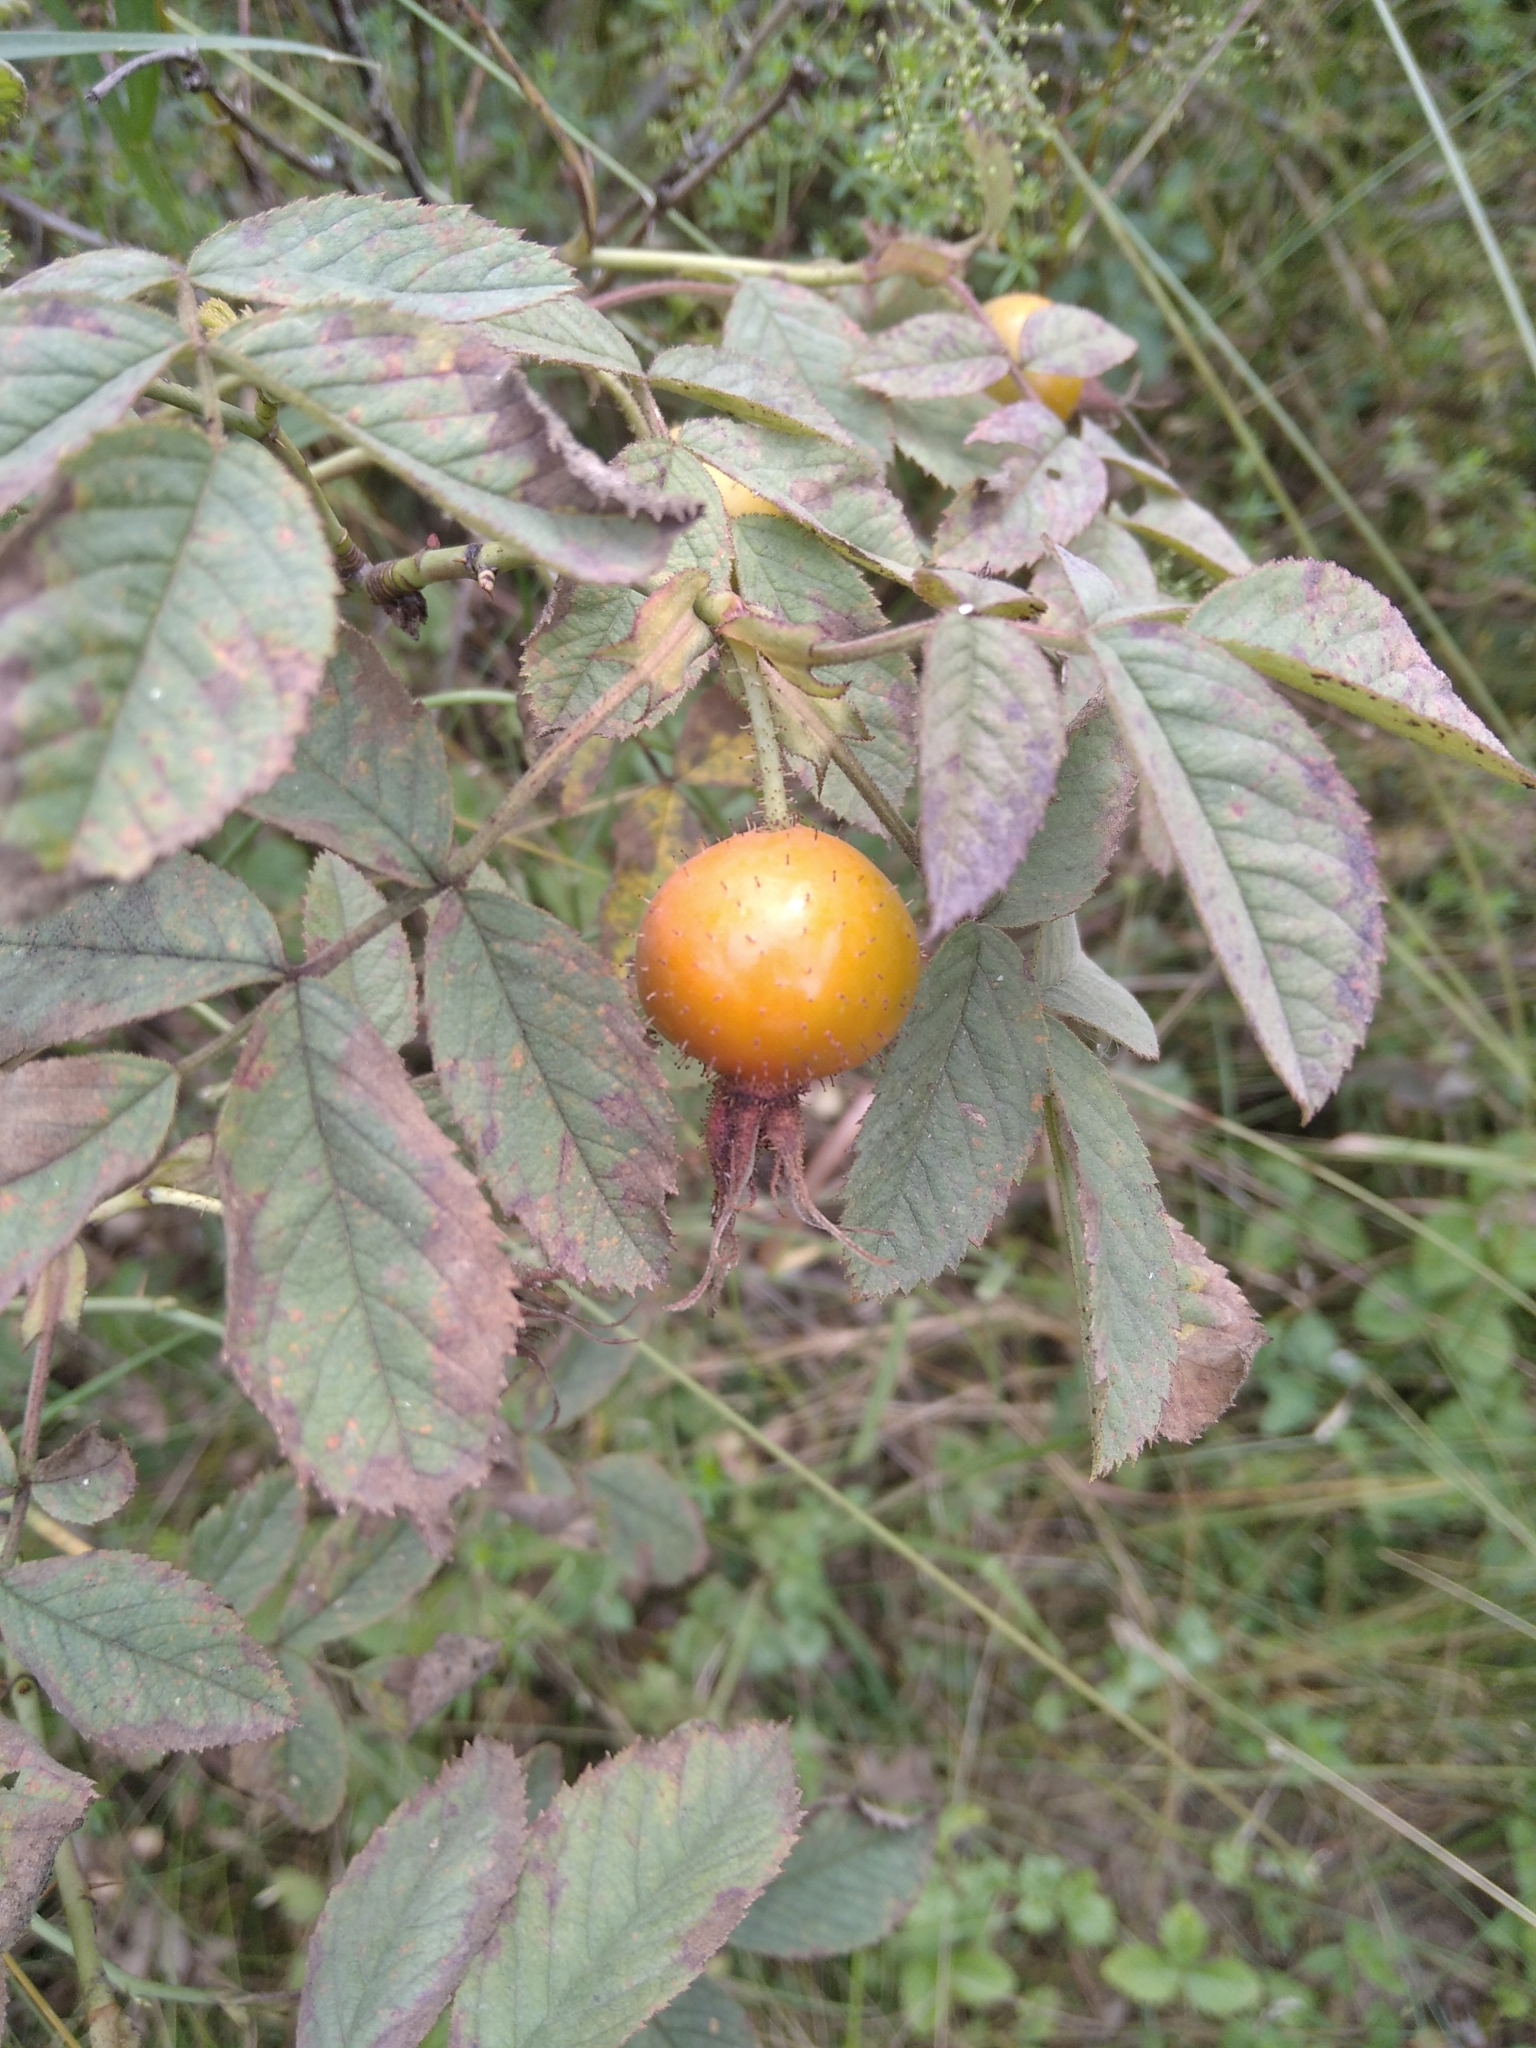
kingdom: Plantae
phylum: Tracheophyta
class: Magnoliopsida
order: Rosales
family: Rosaceae
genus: Rosa
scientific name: Rosa villosa
